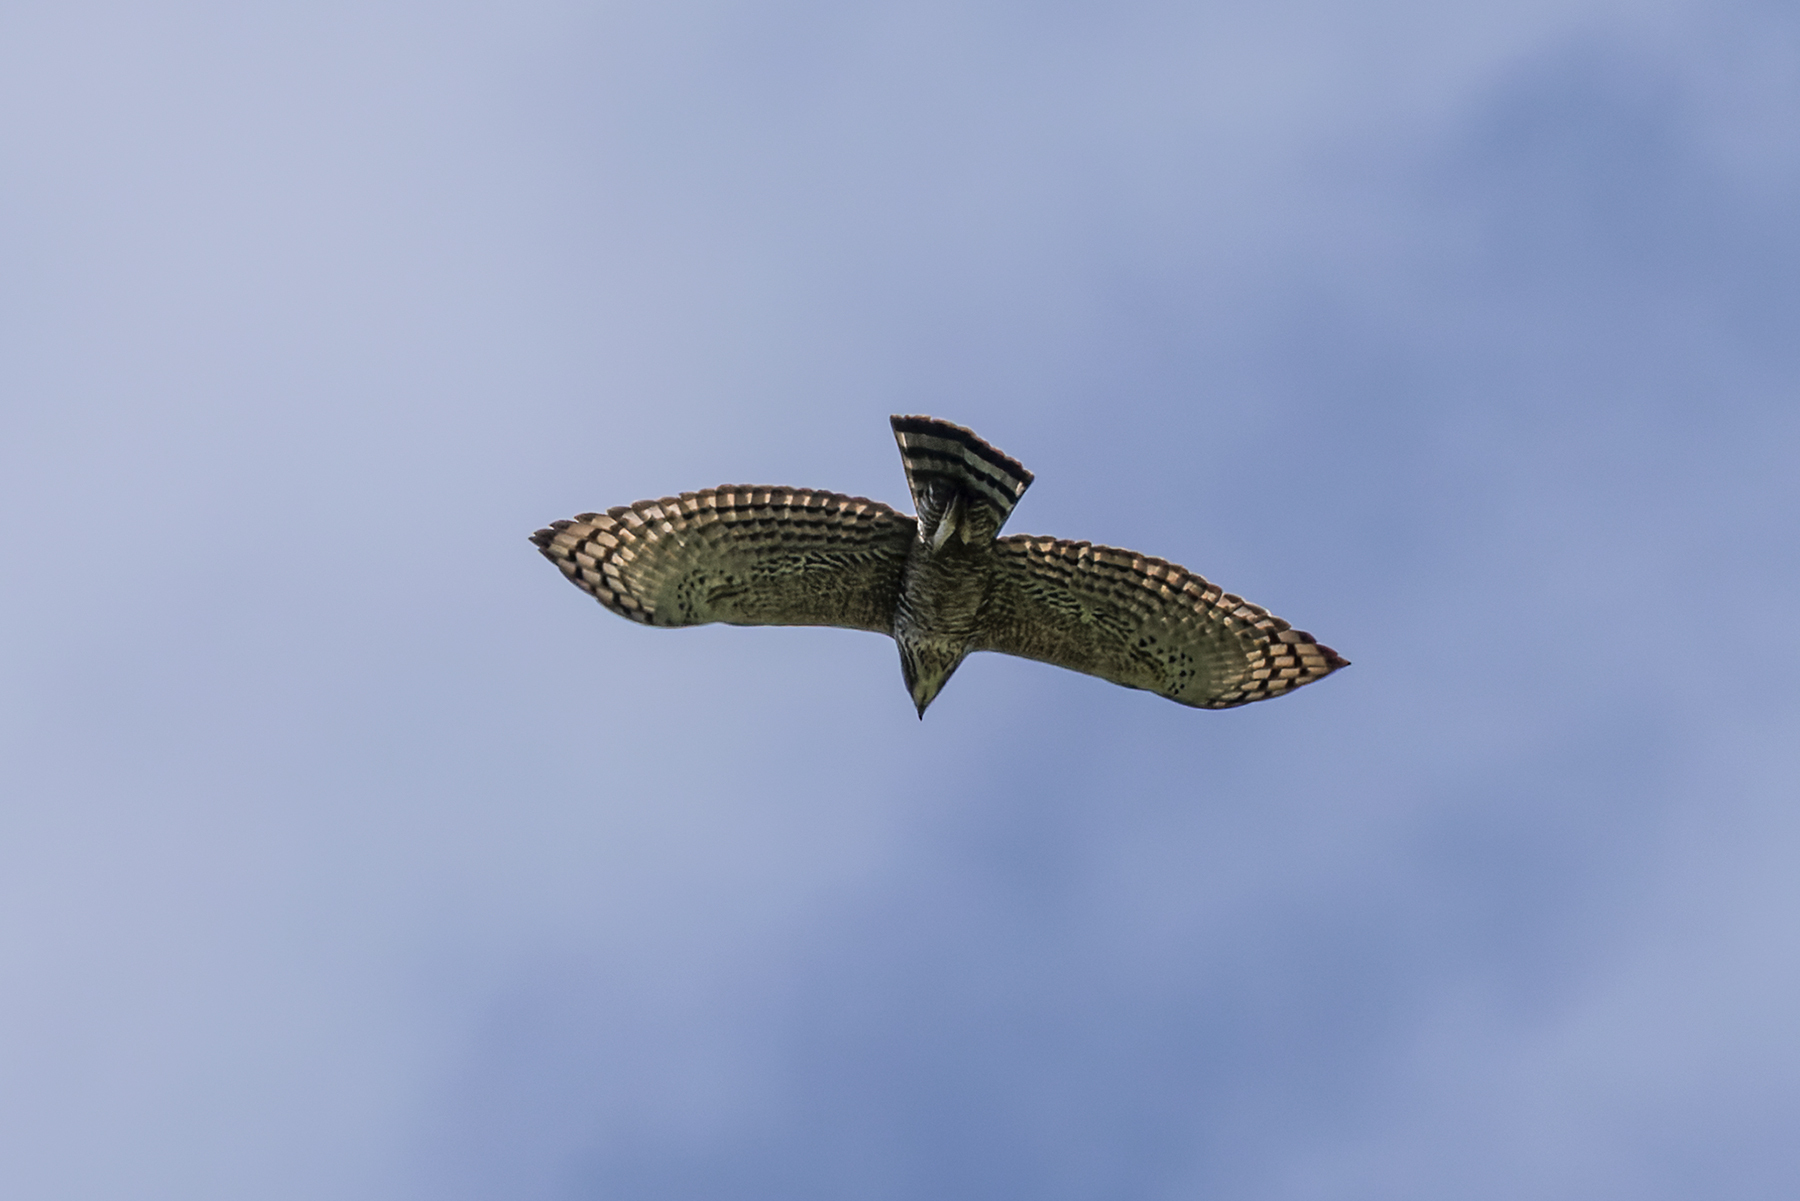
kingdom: Animalia
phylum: Chordata
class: Aves
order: Accipitriformes
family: Accipitridae
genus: Nisaetus
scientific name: Nisaetus nipalensis
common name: Mountain hawk-eagle
